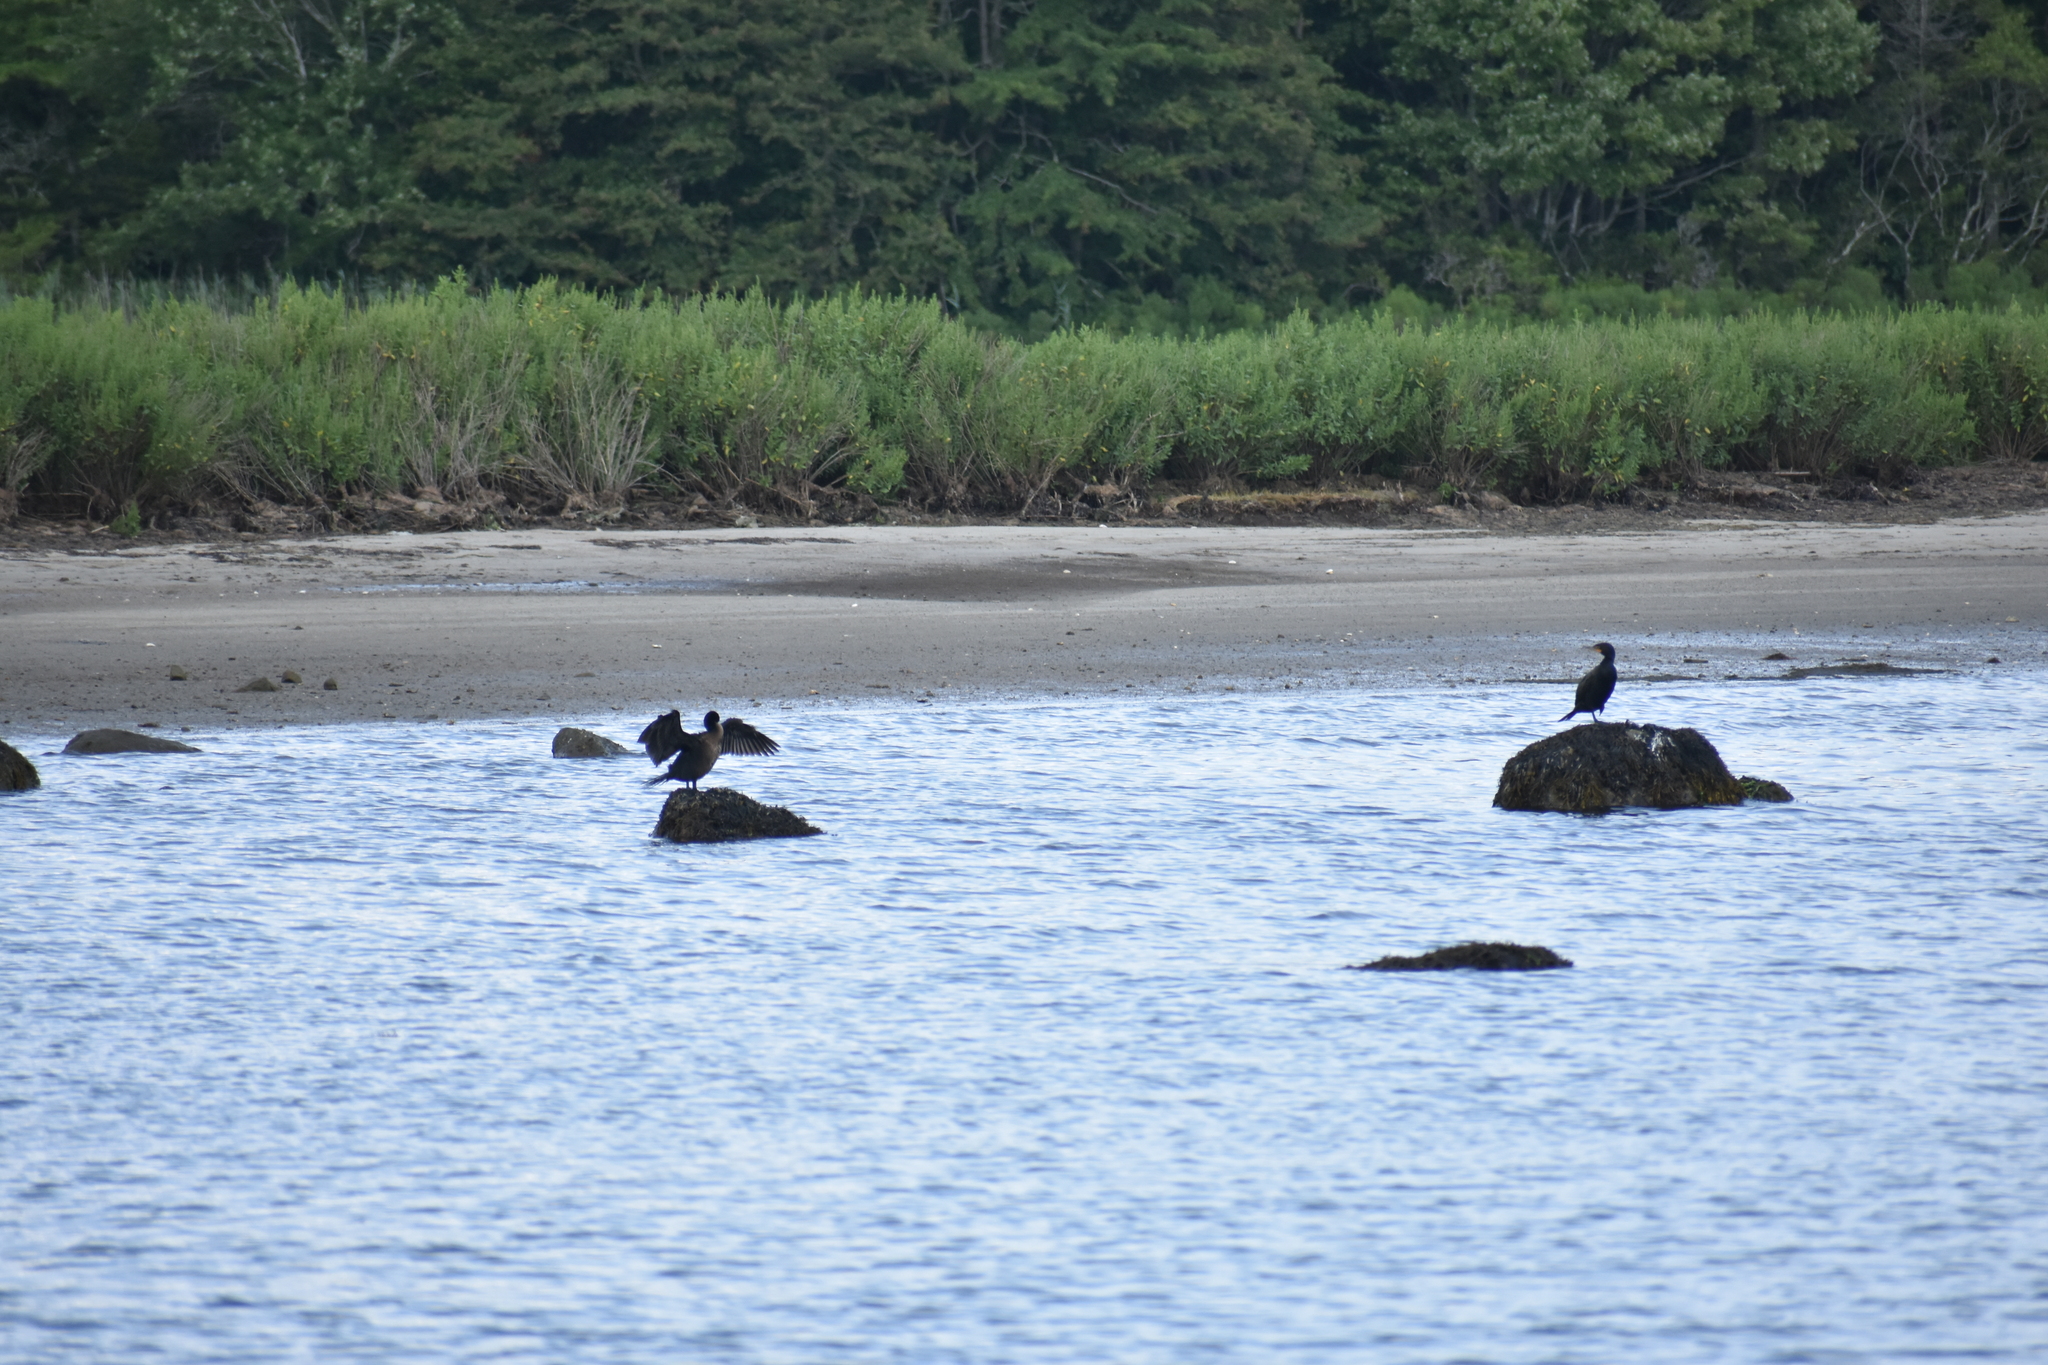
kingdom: Animalia
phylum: Chordata
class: Aves
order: Suliformes
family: Phalacrocoracidae
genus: Phalacrocorax
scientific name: Phalacrocorax auritus
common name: Double-crested cormorant
